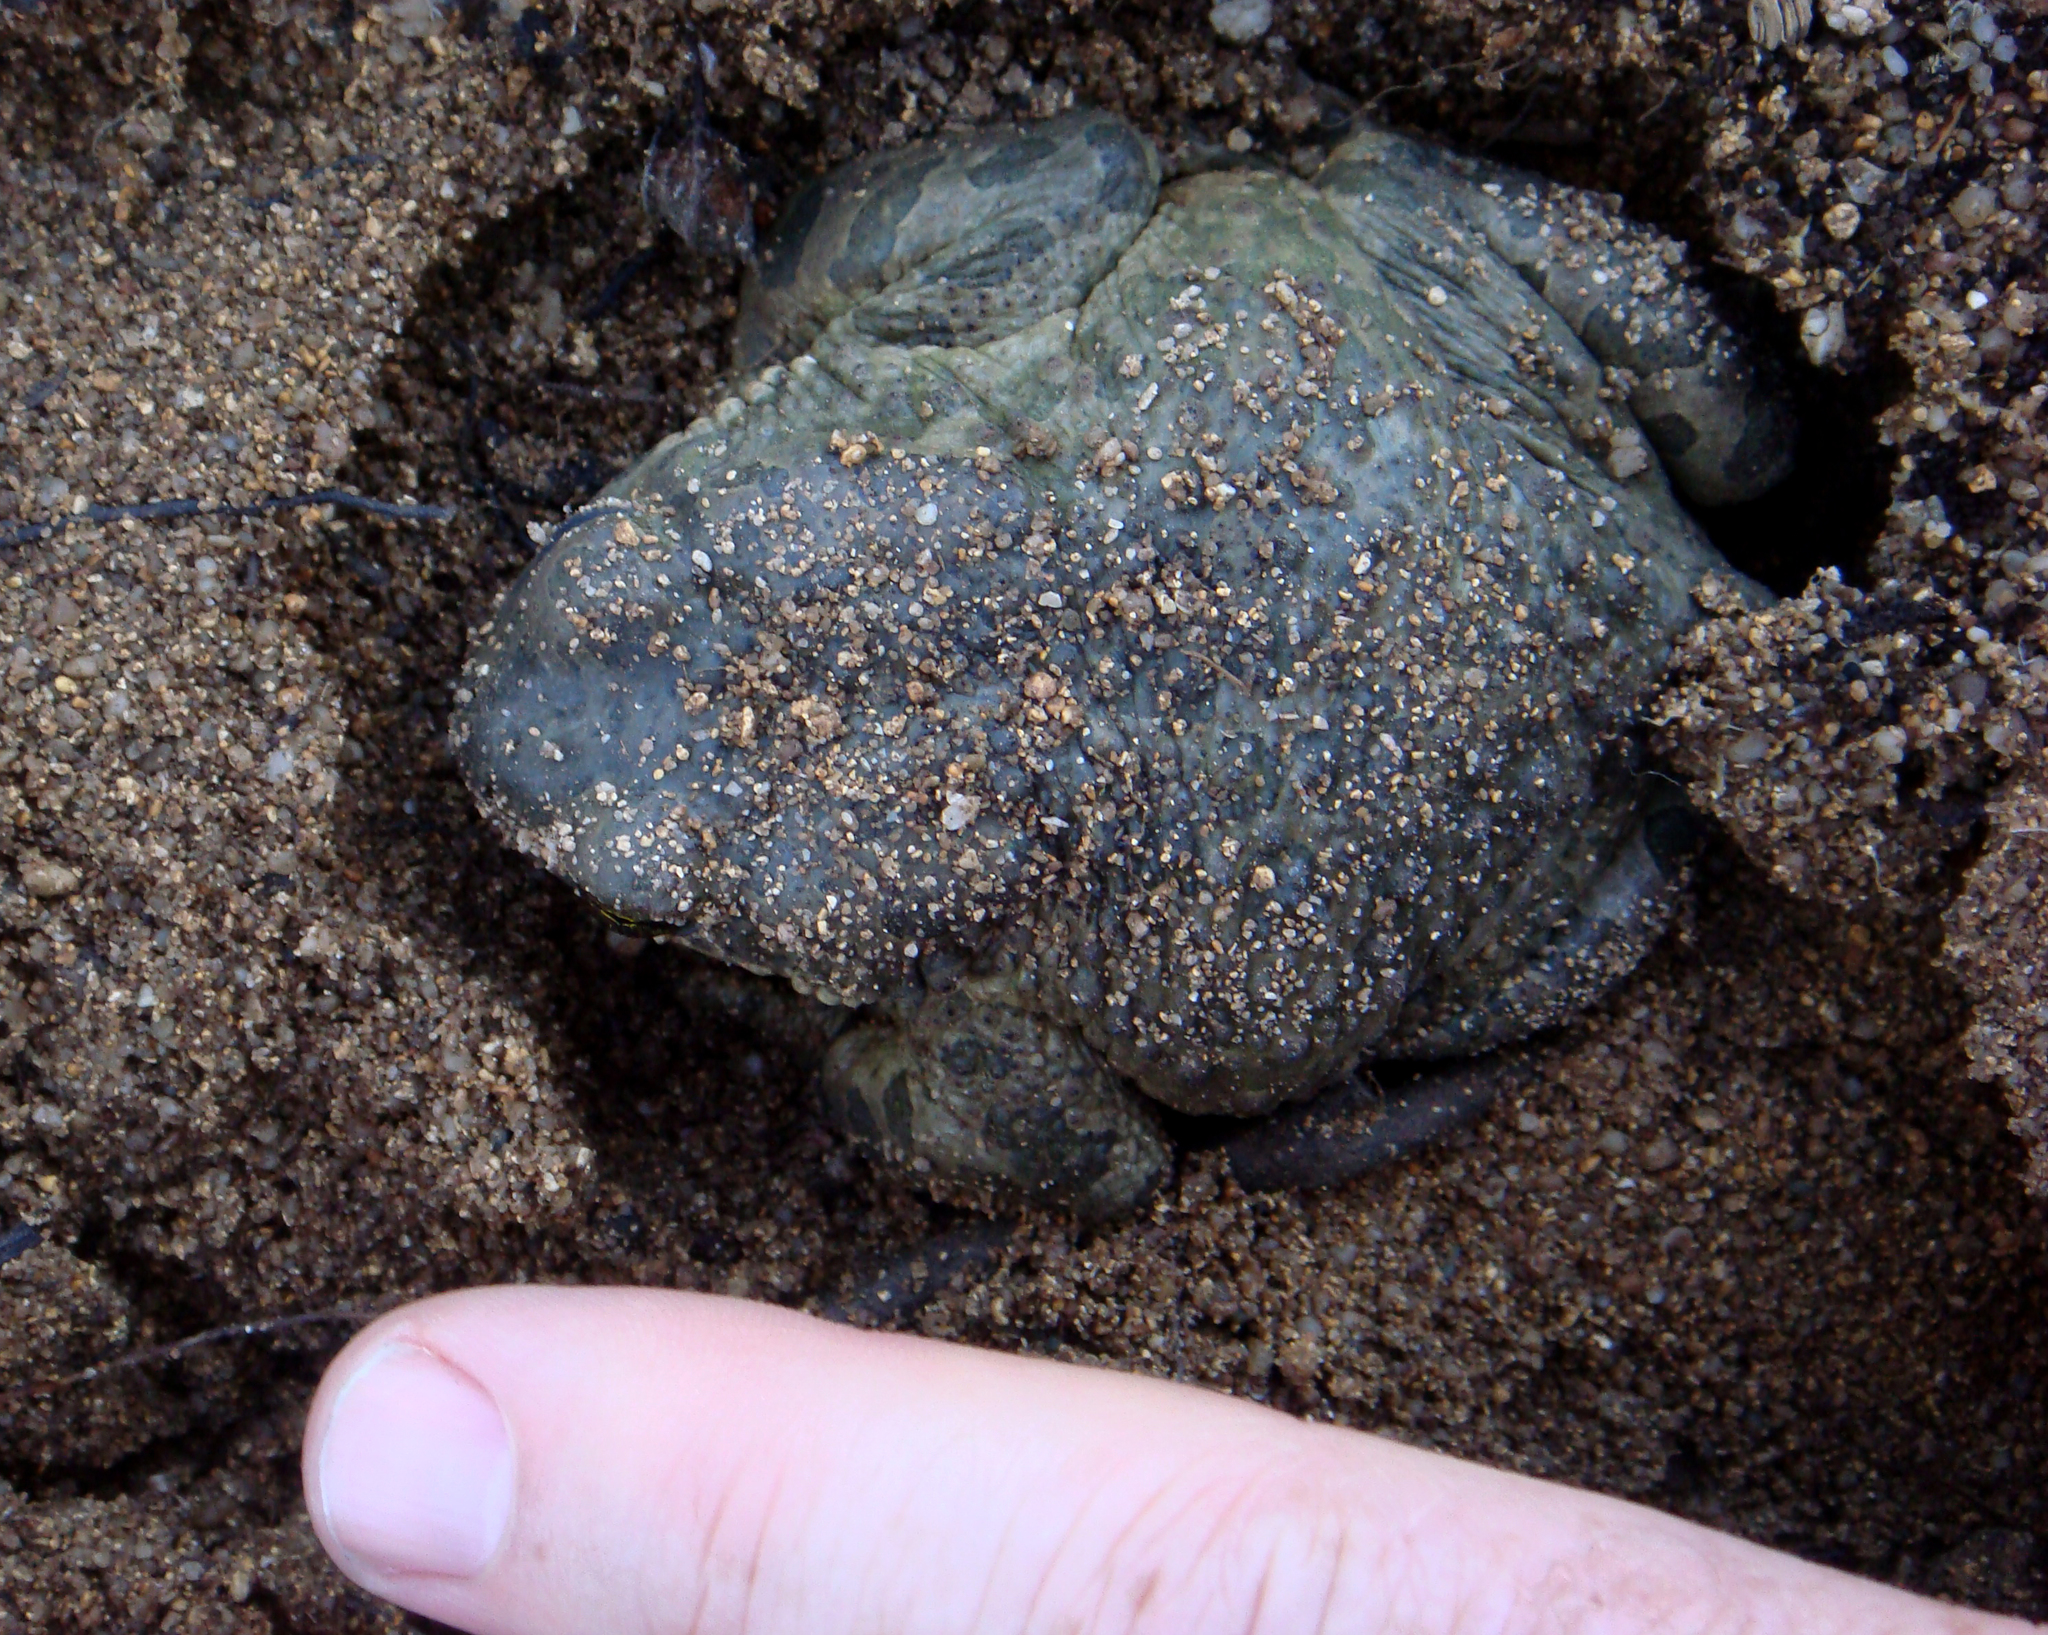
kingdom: Animalia
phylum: Chordata
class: Amphibia
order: Anura
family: Bufonidae
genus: Bufotes
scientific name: Bufotes viridis
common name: European green toad
